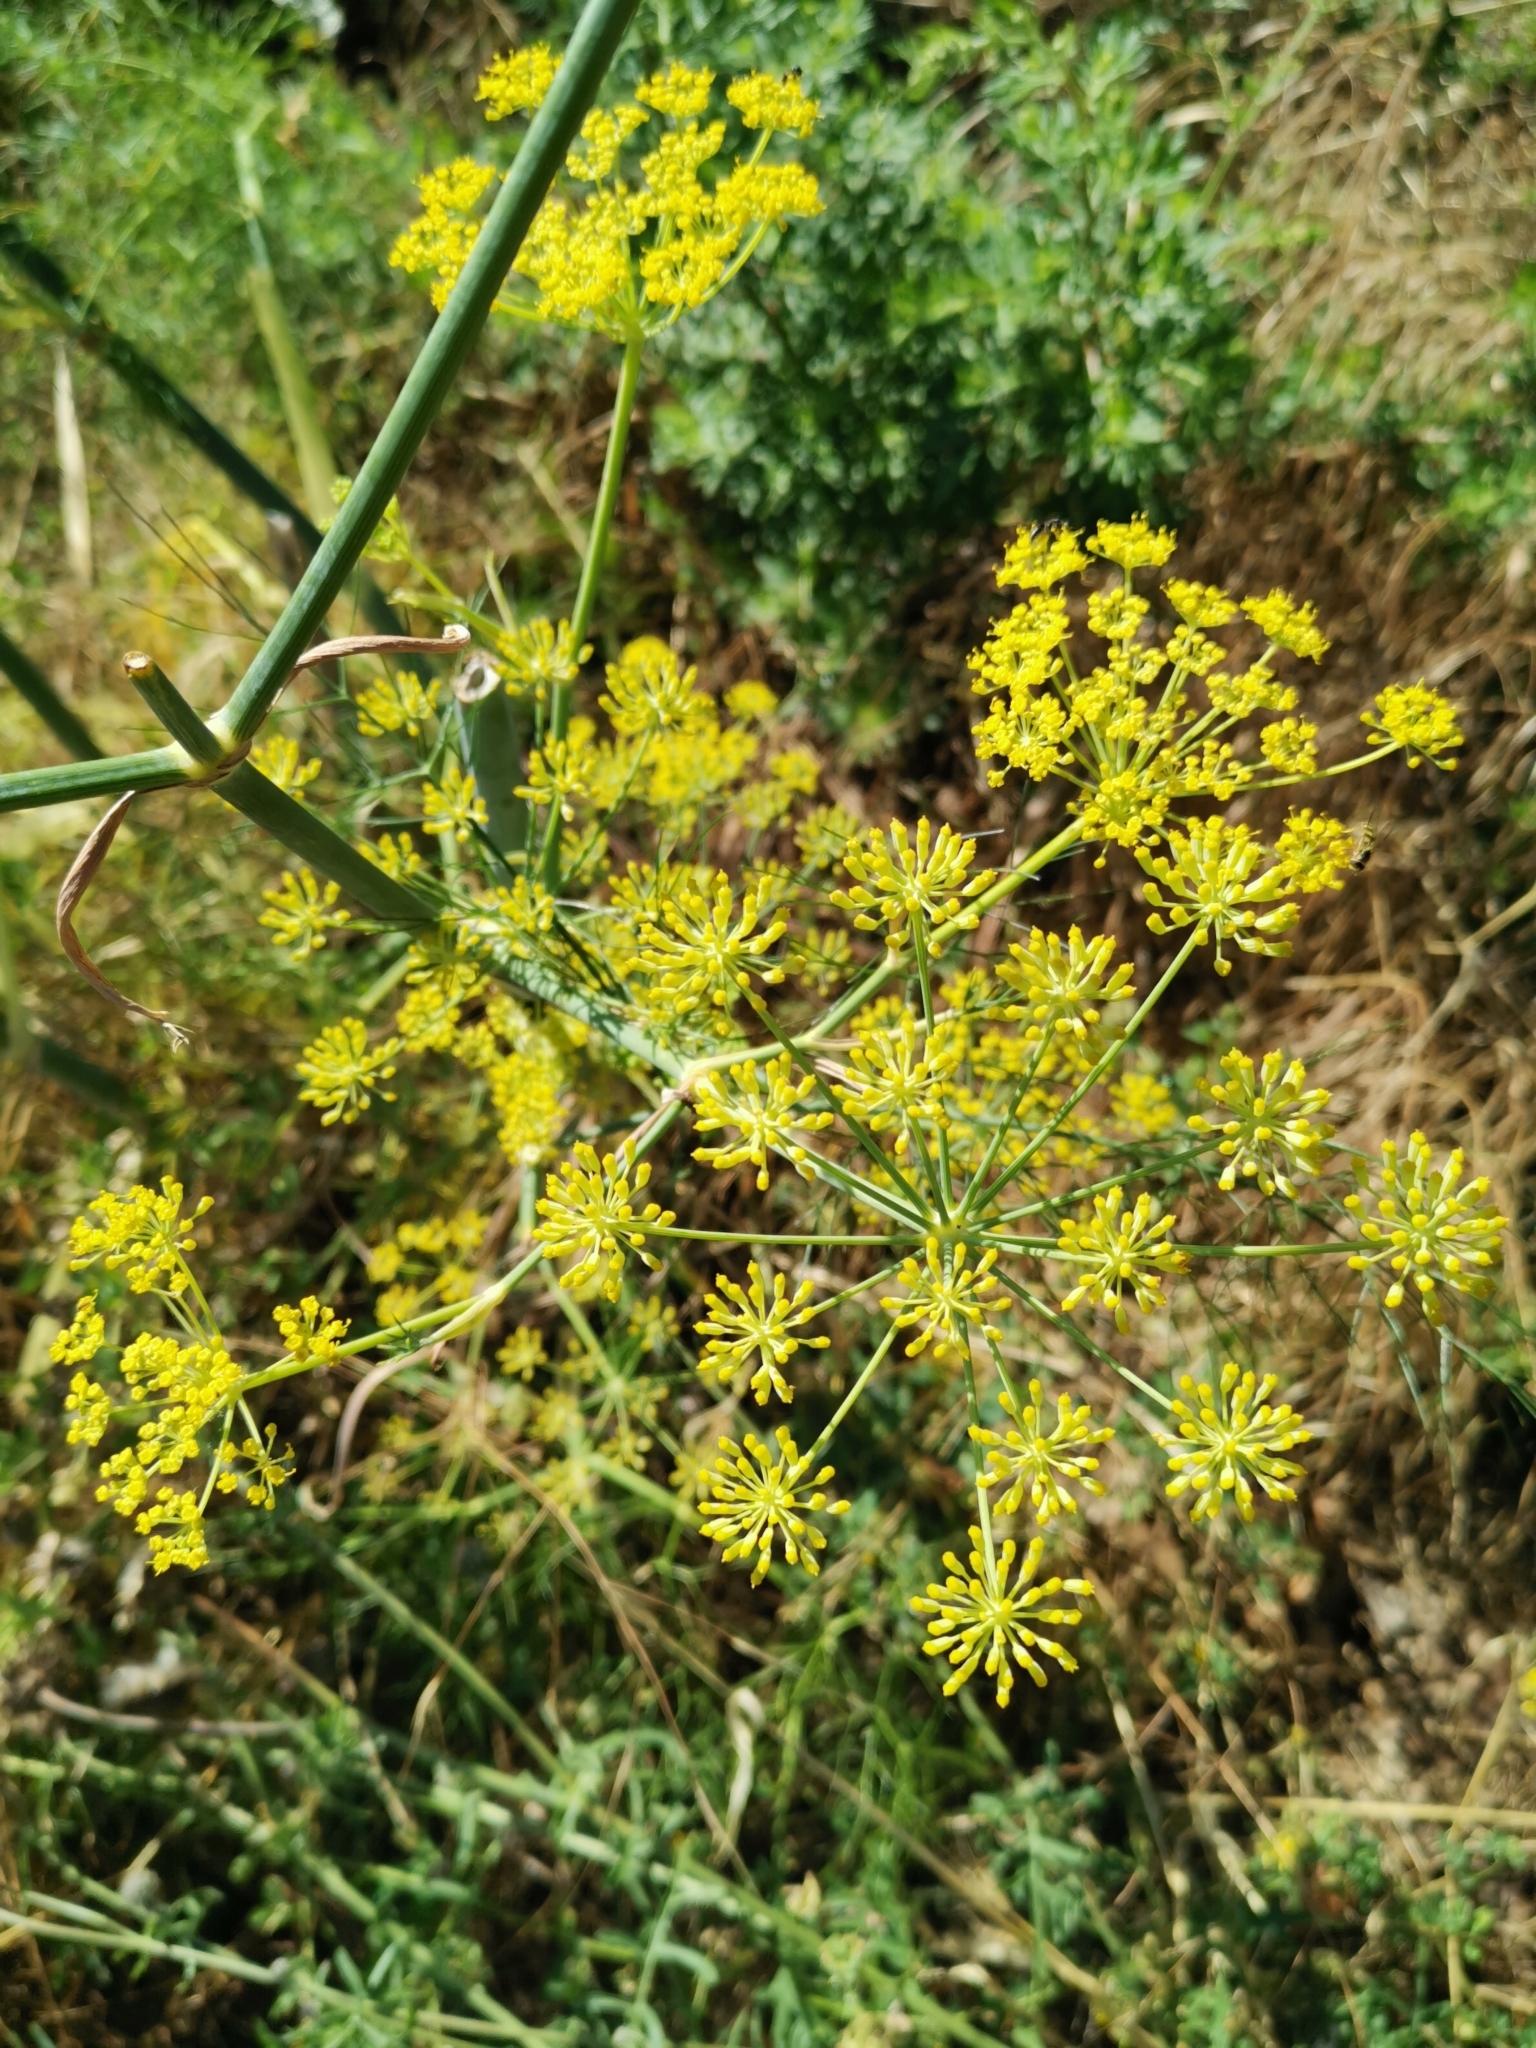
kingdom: Plantae
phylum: Tracheophyta
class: Magnoliopsida
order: Apiales
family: Apiaceae
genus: Foeniculum
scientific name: Foeniculum vulgare
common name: Fennel
